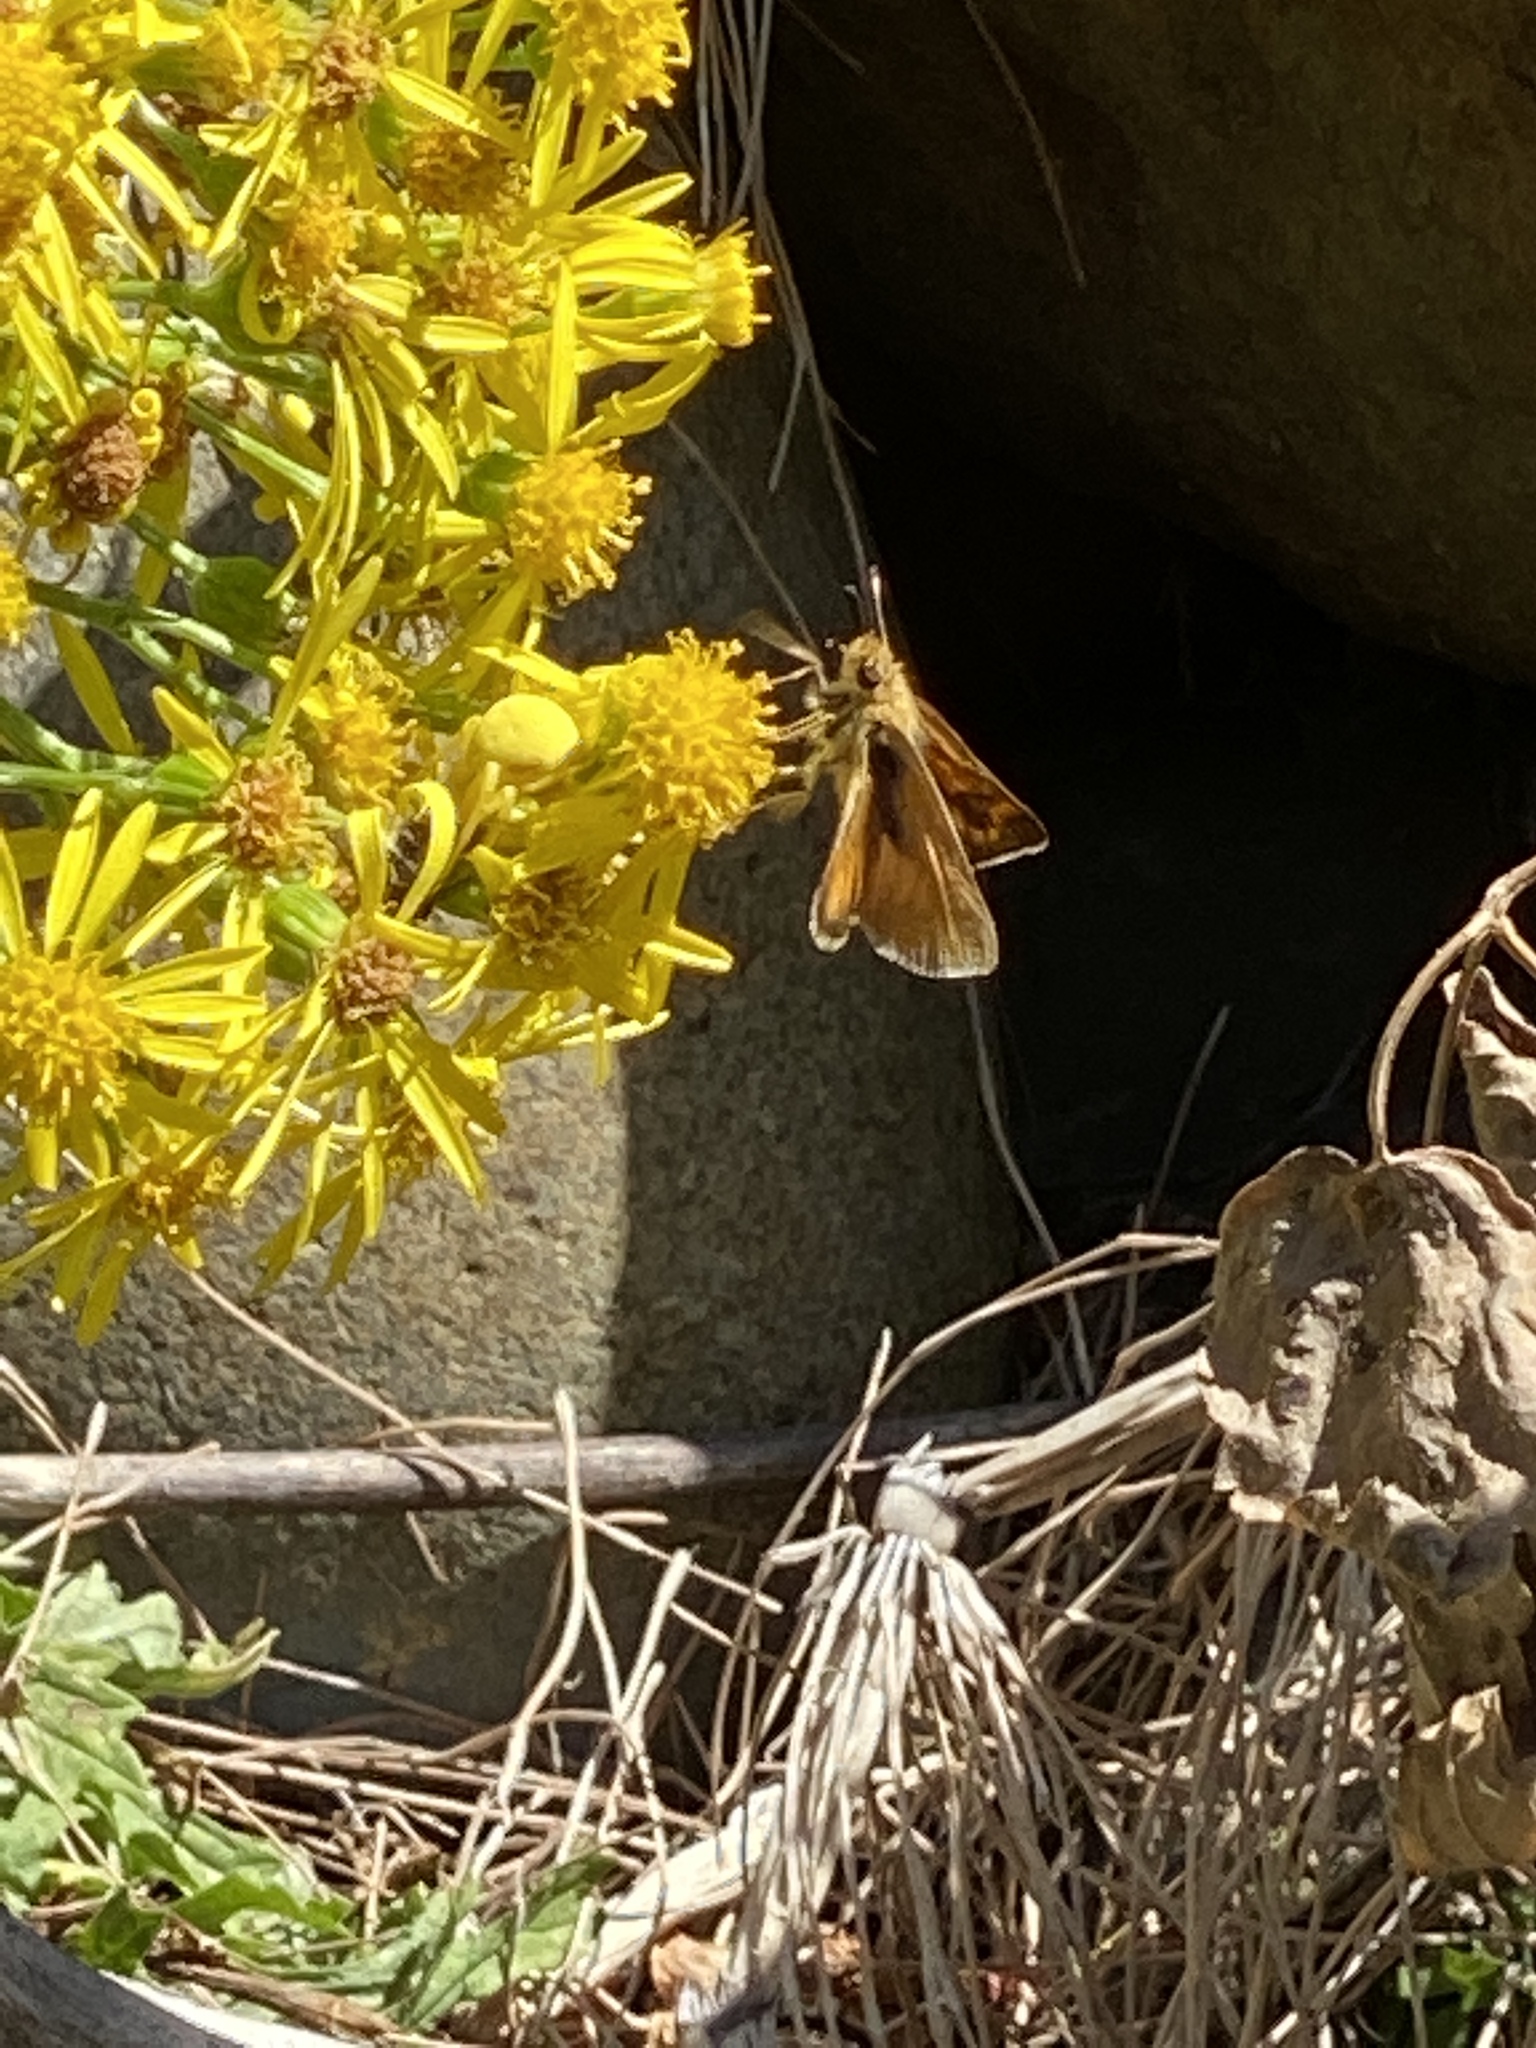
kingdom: Animalia
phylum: Arthropoda
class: Insecta
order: Lepidoptera
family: Hesperiidae
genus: Ochlodes
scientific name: Ochlodes sylvanoides
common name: Woodland skipper
